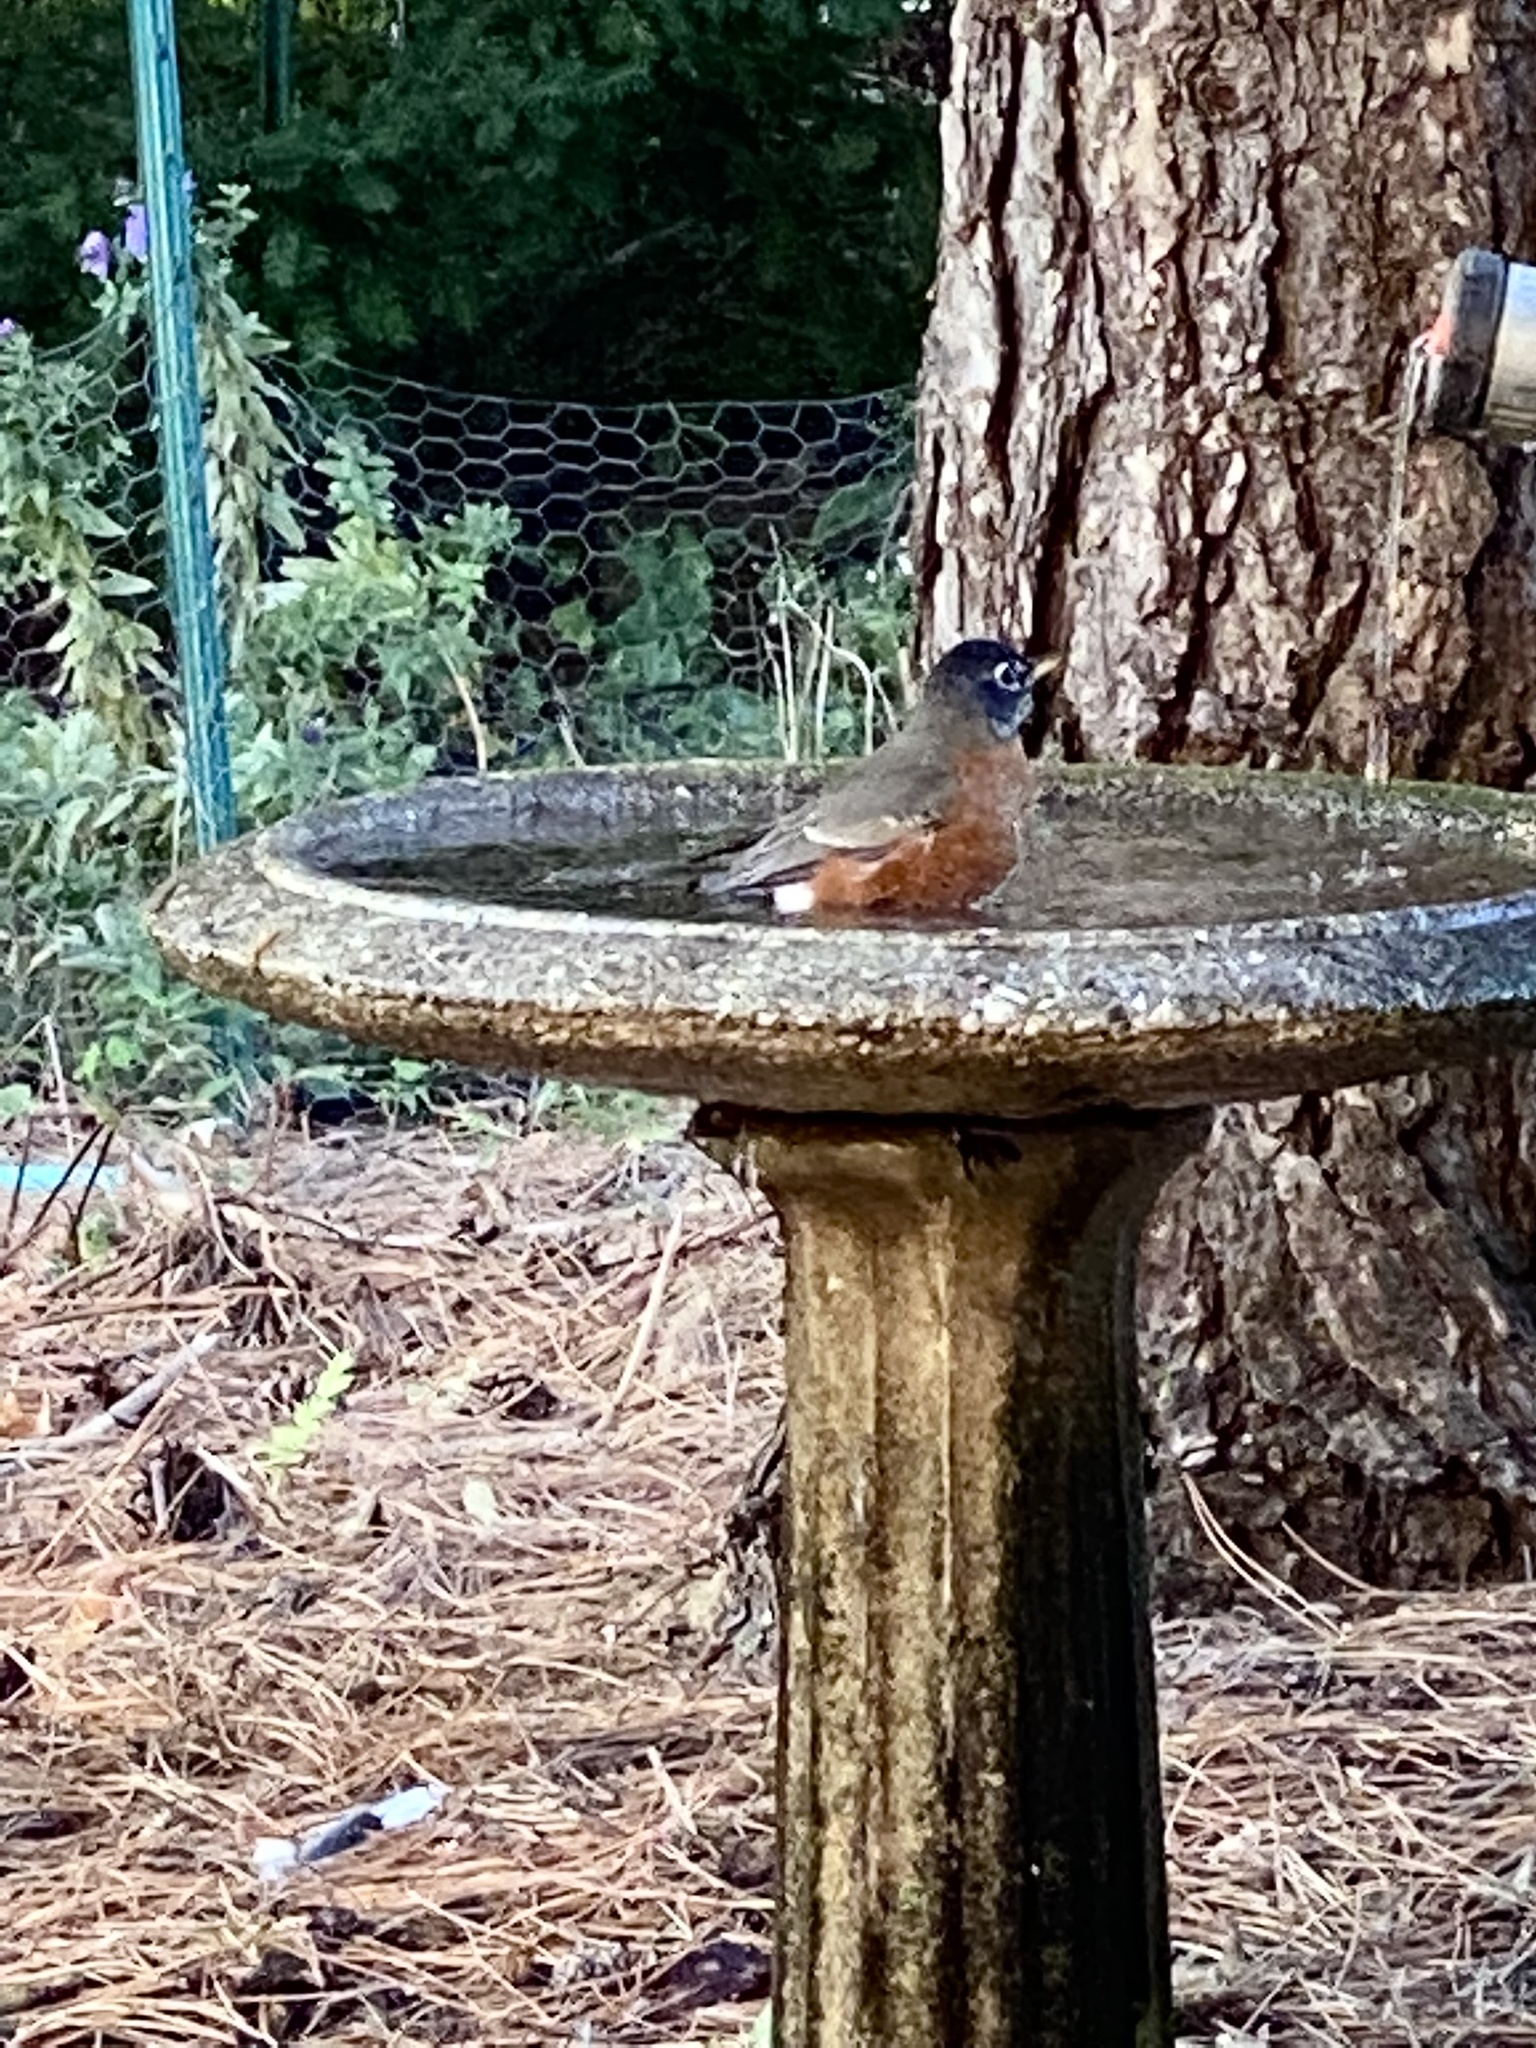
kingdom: Animalia
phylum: Chordata
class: Aves
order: Passeriformes
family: Turdidae
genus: Turdus
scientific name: Turdus migratorius
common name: American robin
